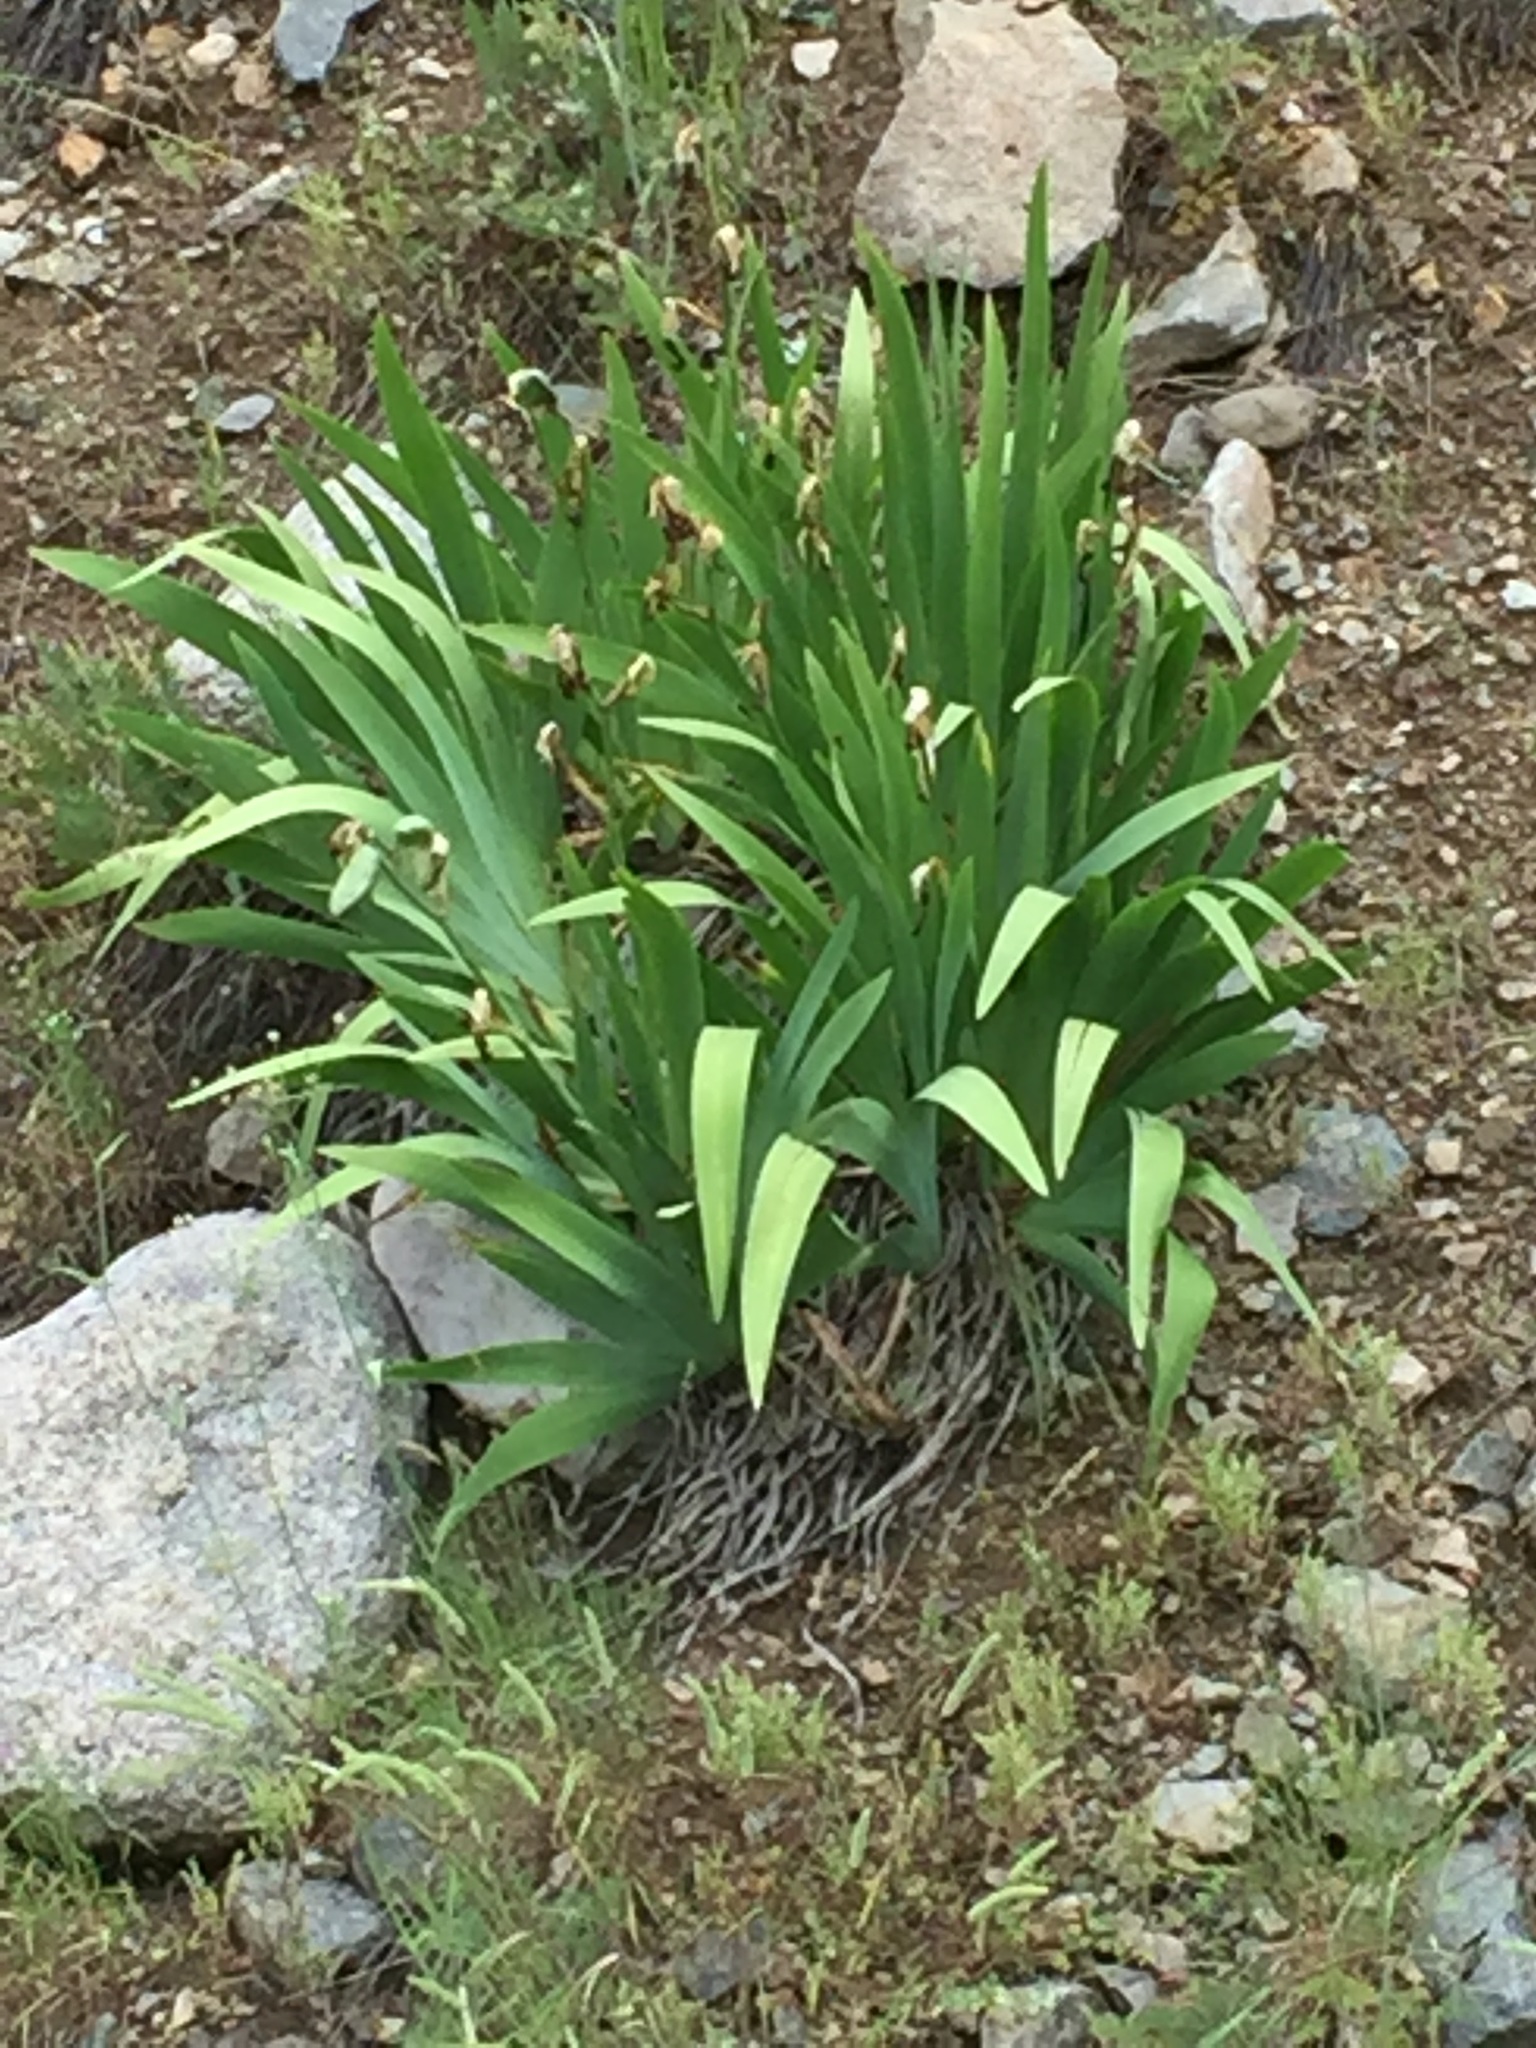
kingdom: Plantae
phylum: Tracheophyta
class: Liliopsida
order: Asparagales
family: Iridaceae
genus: Iris
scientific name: Iris imbricata
